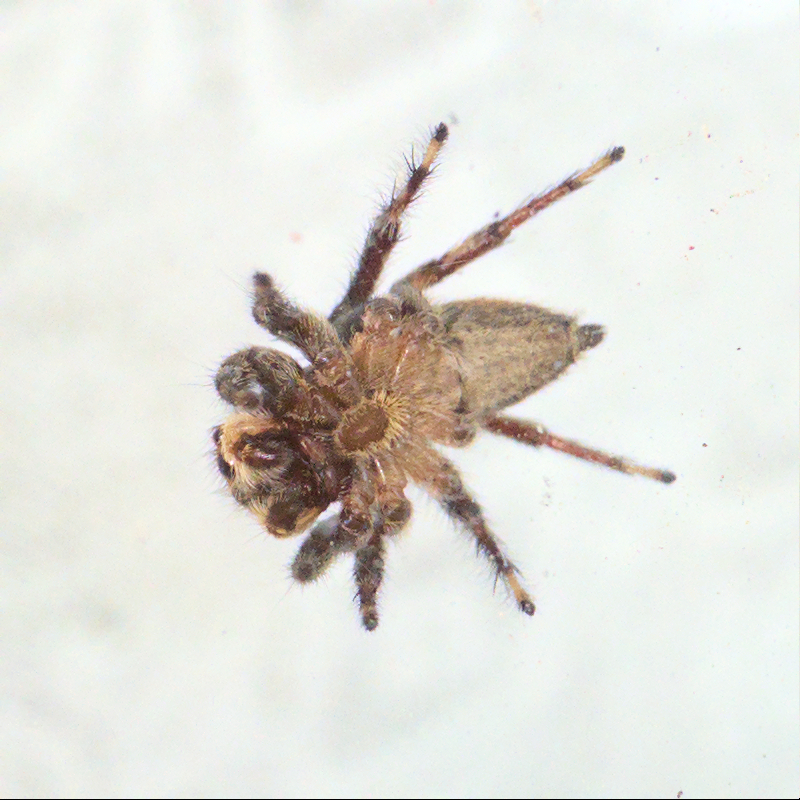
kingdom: Animalia
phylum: Arthropoda
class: Arachnida
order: Araneae
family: Salticidae
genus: Maratus
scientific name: Maratus griseus
